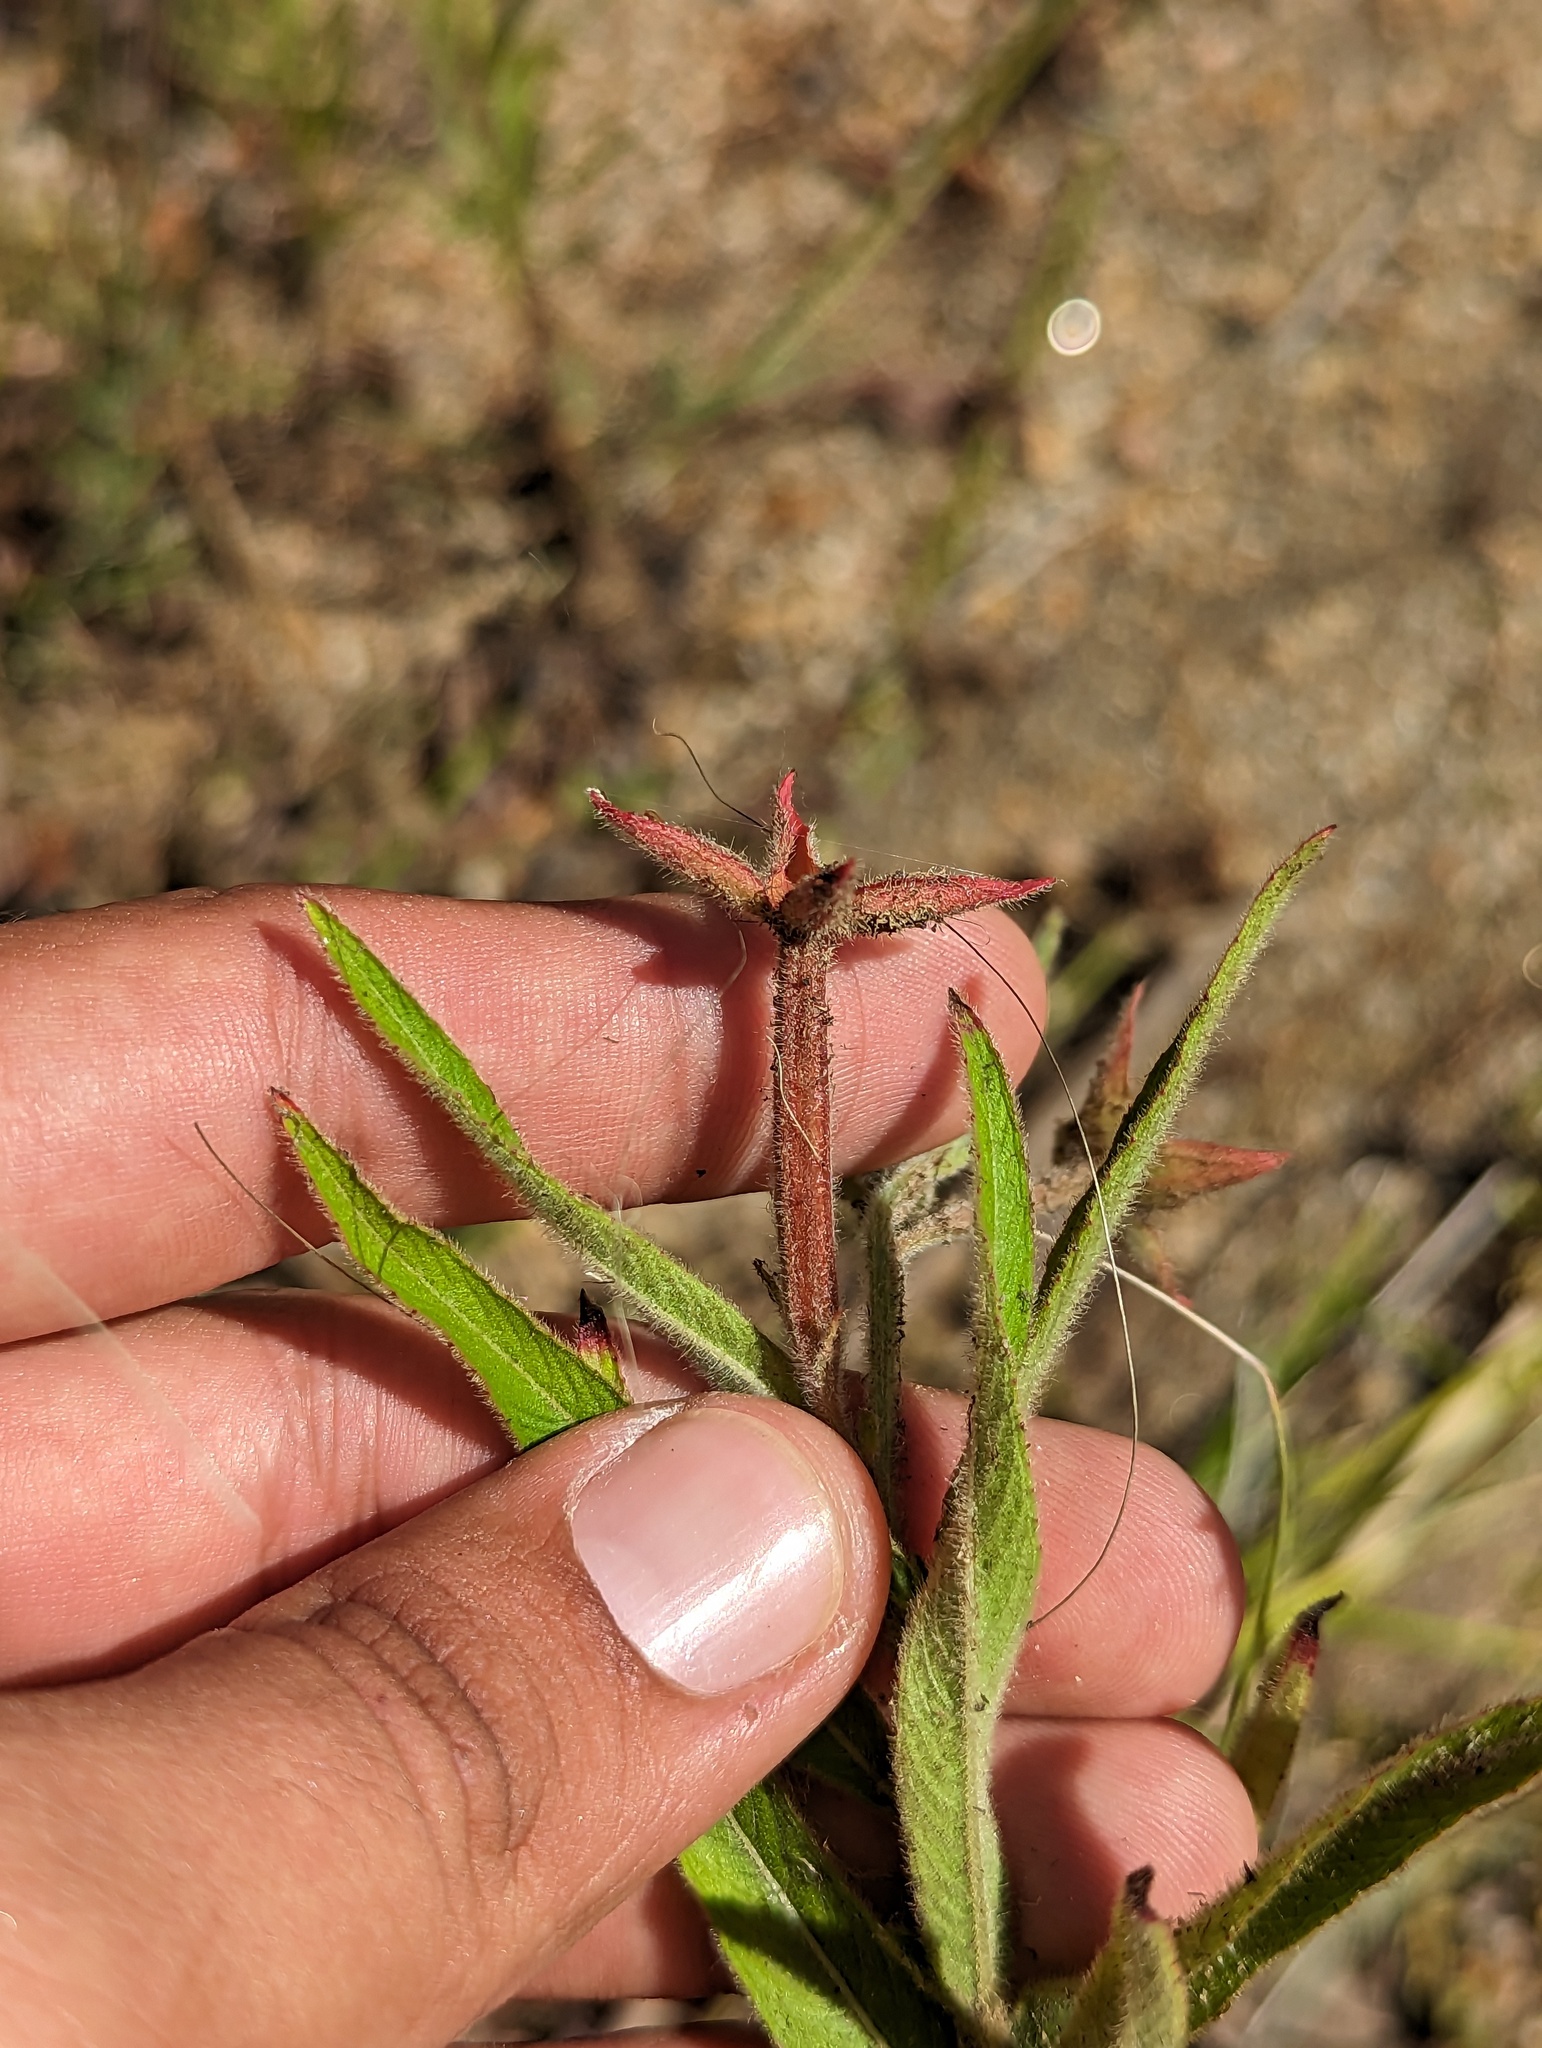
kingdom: Plantae
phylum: Tracheophyta
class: Magnoliopsida
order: Myrtales
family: Onagraceae
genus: Ludwigia
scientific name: Ludwigia octovalvis
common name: Water-primrose
